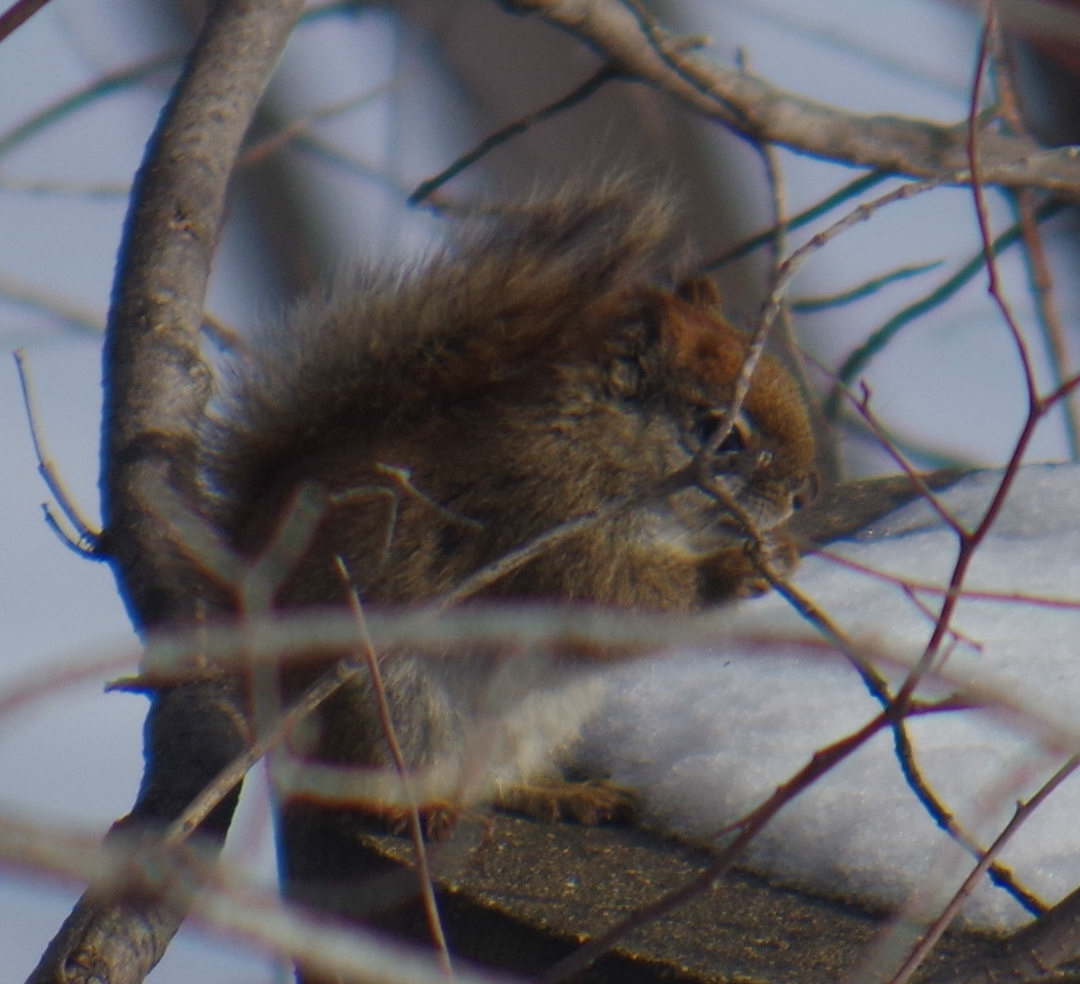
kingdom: Animalia
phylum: Chordata
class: Mammalia
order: Rodentia
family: Sciuridae
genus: Tamiasciurus
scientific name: Tamiasciurus hudsonicus
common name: Red squirrel
